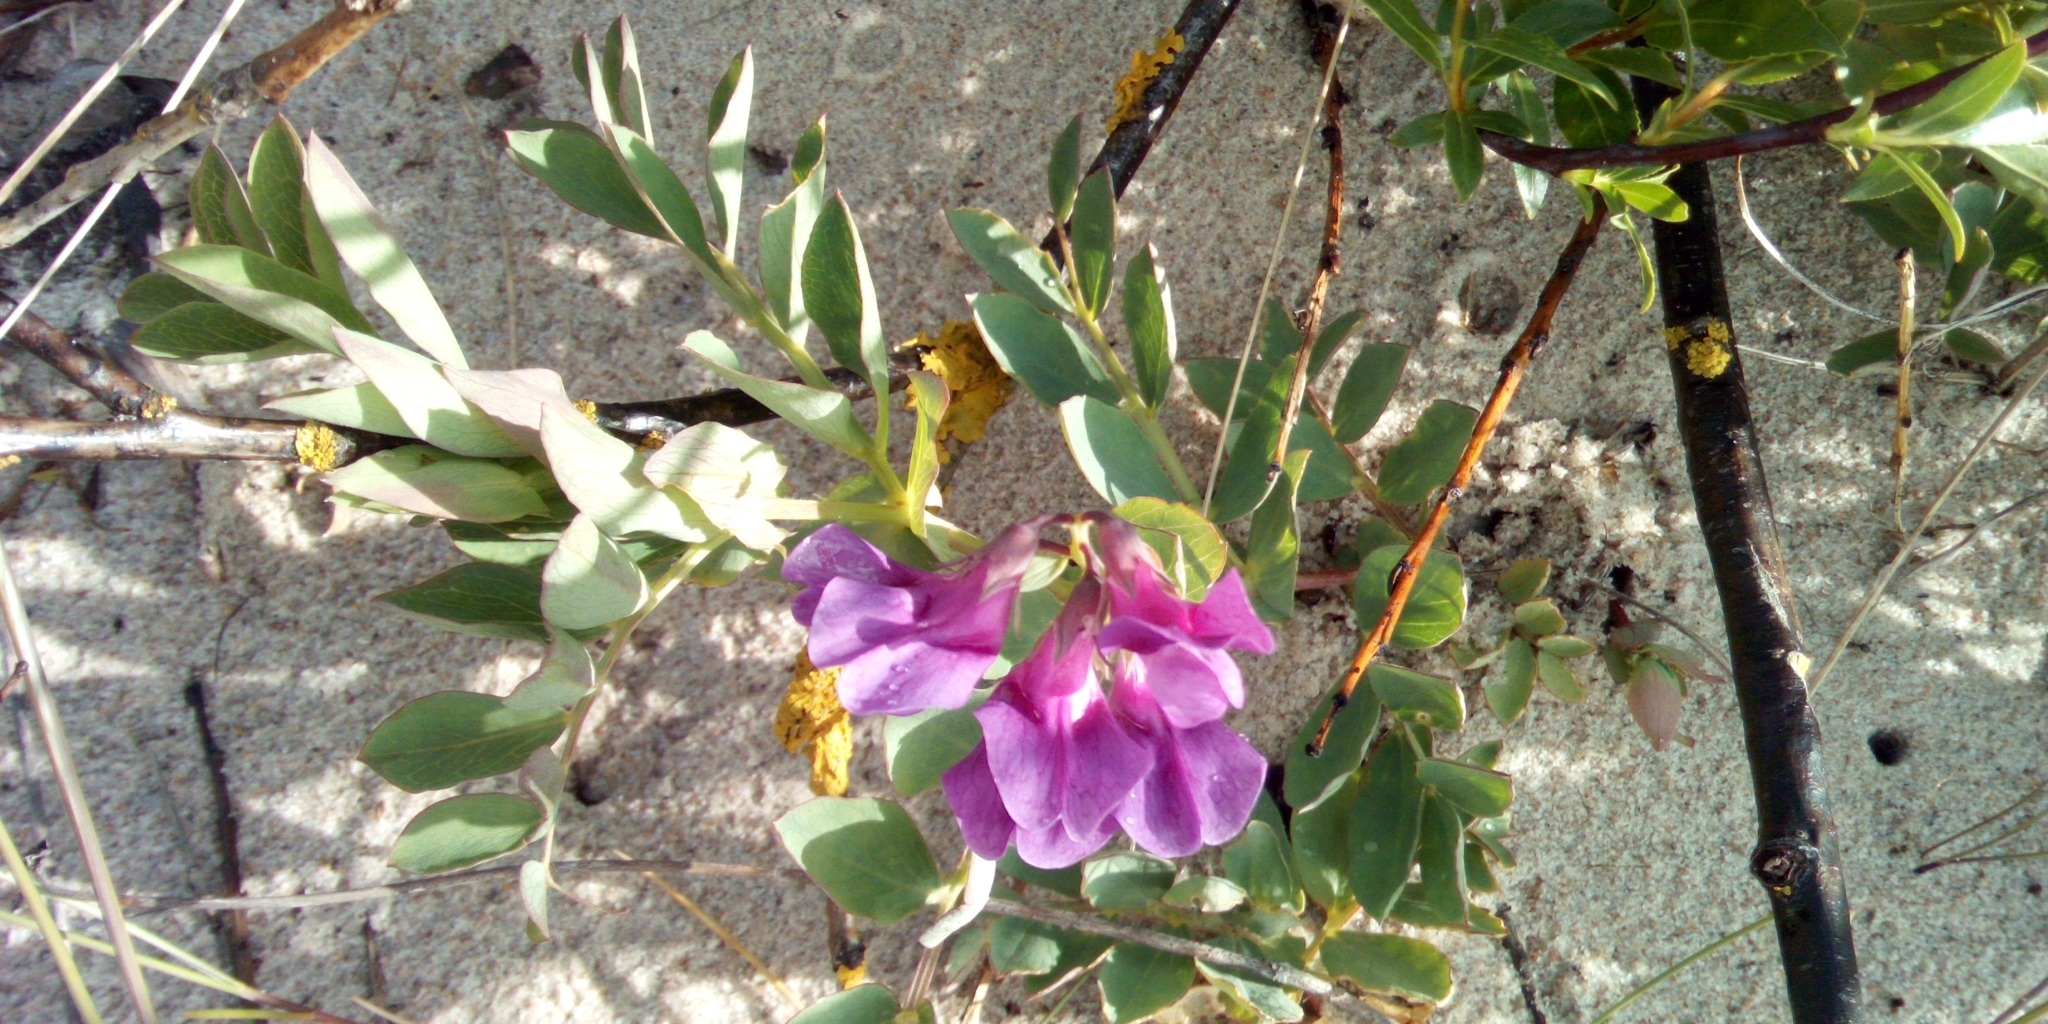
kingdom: Plantae
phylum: Tracheophyta
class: Magnoliopsida
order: Fabales
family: Fabaceae
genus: Lathyrus
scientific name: Lathyrus japonicus
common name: Sea pea
